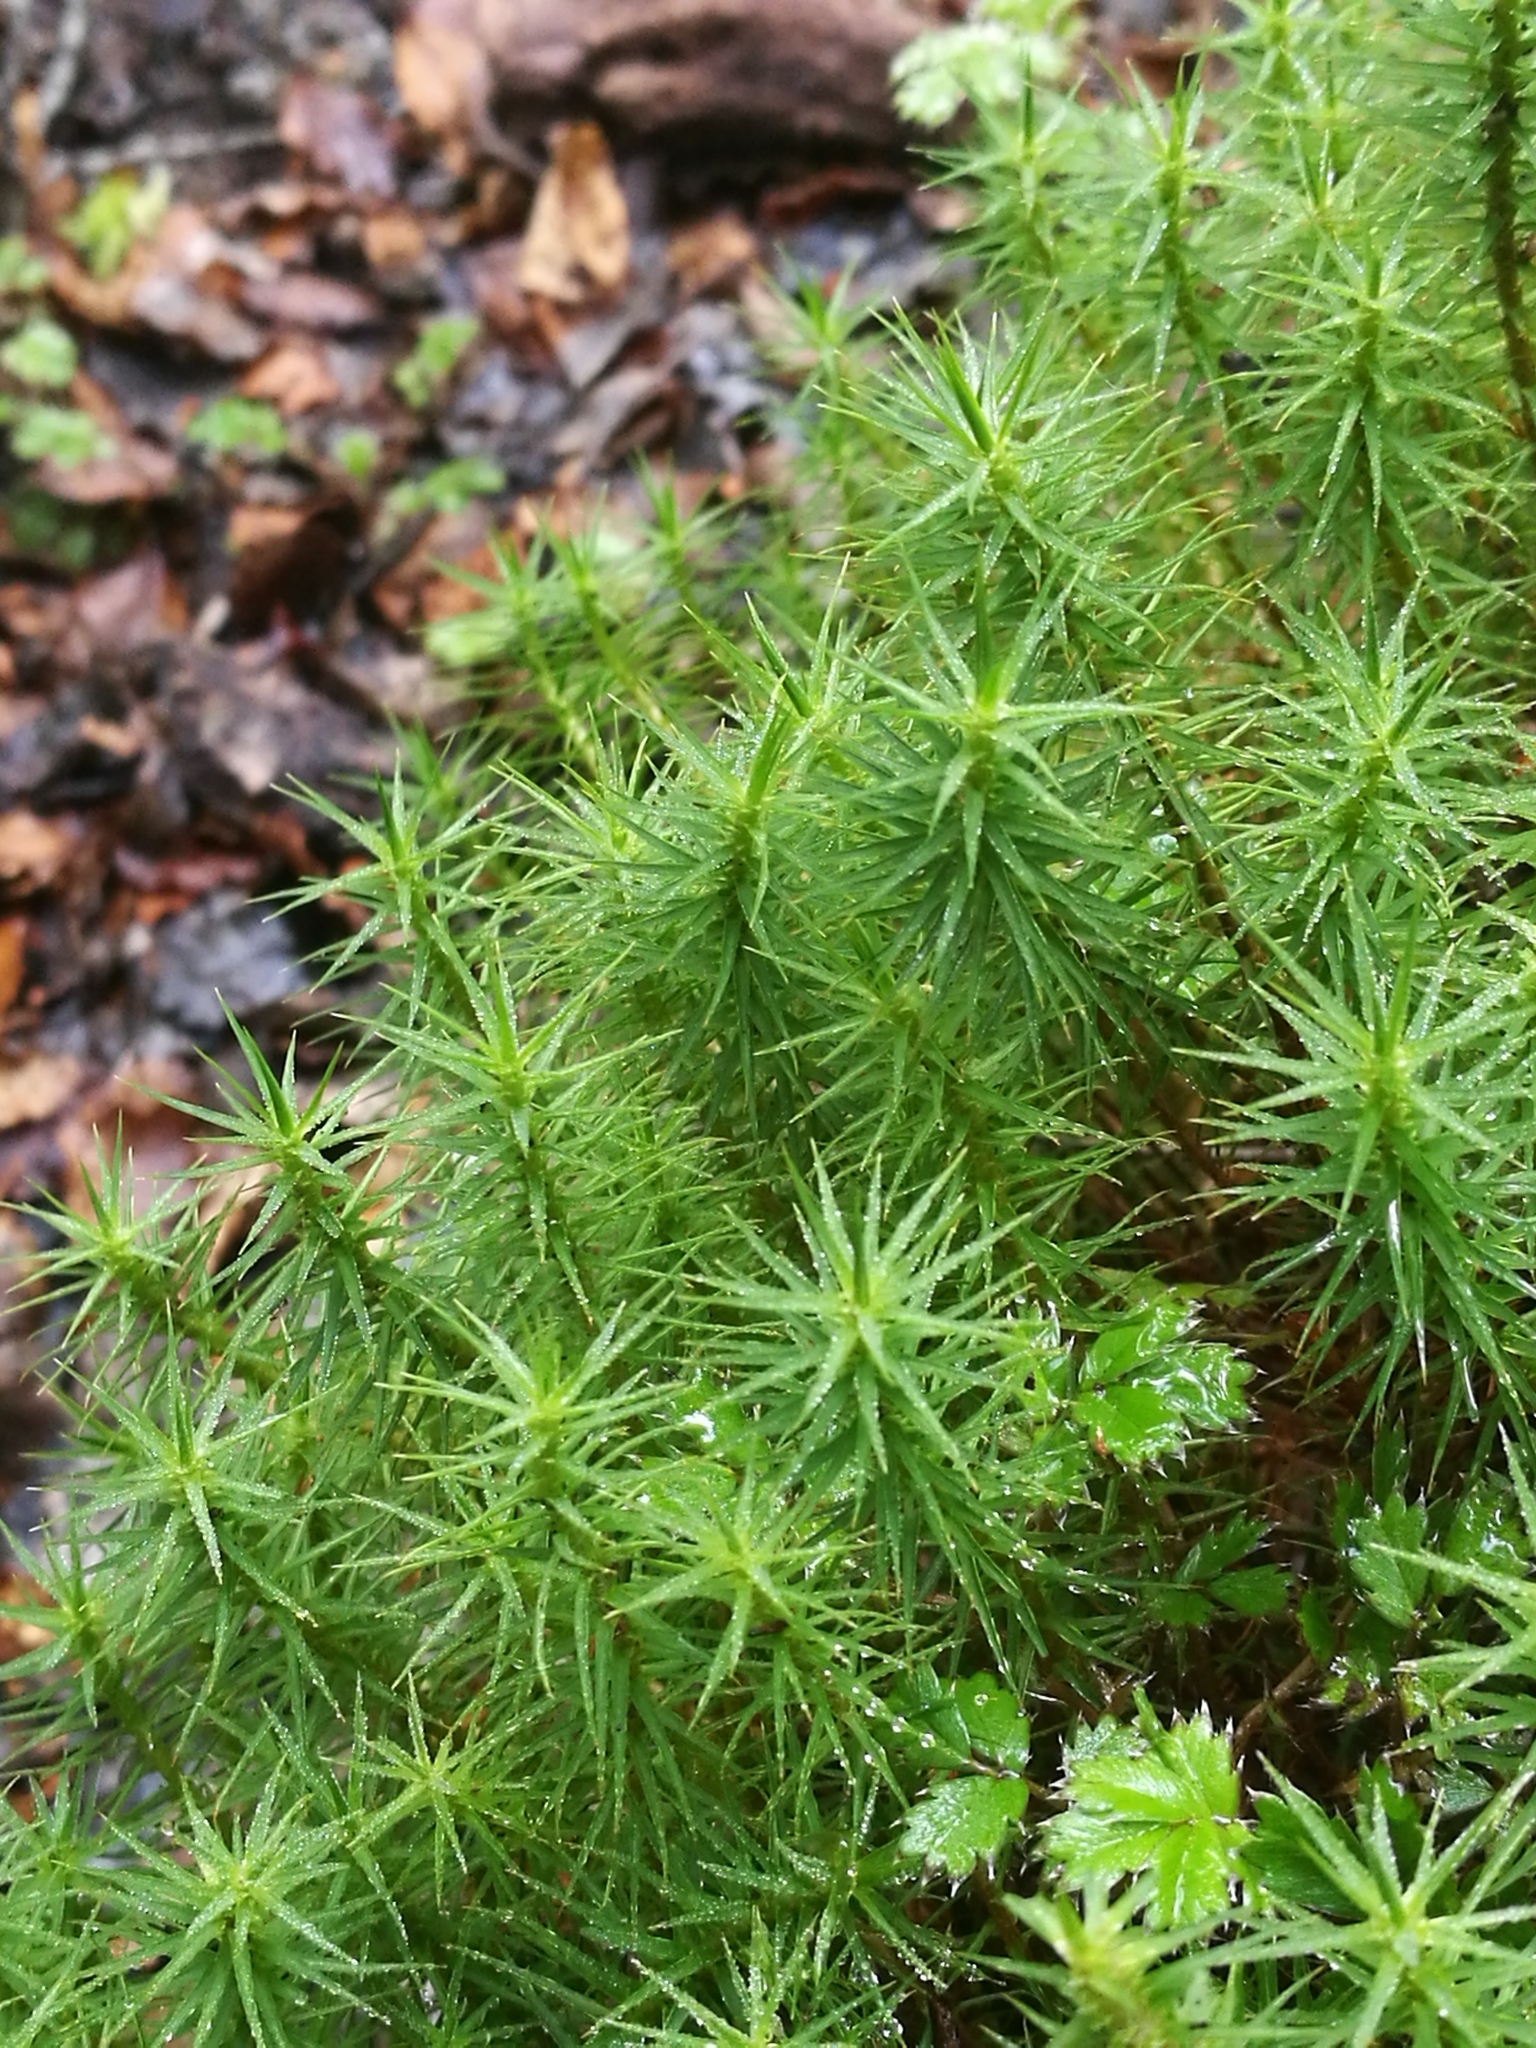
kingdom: Plantae
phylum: Bryophyta
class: Polytrichopsida
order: Polytrichales
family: Polytrichaceae
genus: Dawsonia
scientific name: Dawsonia superba
